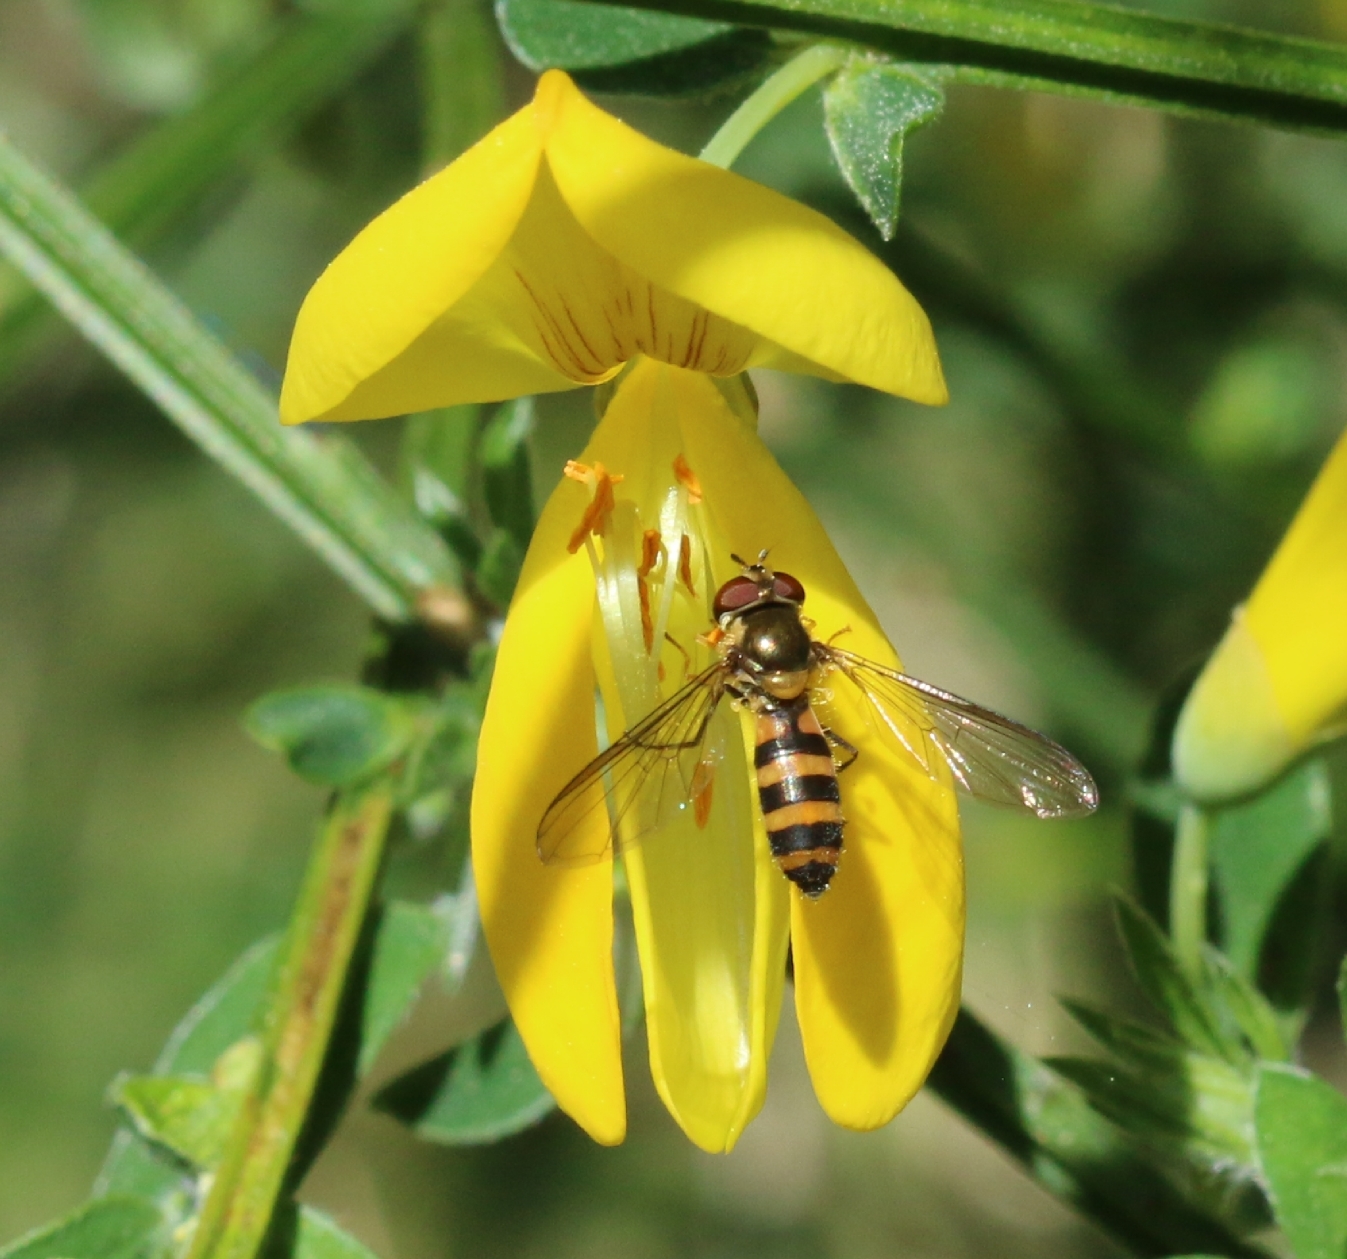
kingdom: Animalia
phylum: Arthropoda
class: Insecta
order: Diptera
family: Syrphidae
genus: Meliscaeva
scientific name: Meliscaeva cinctella
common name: American thintail fly
